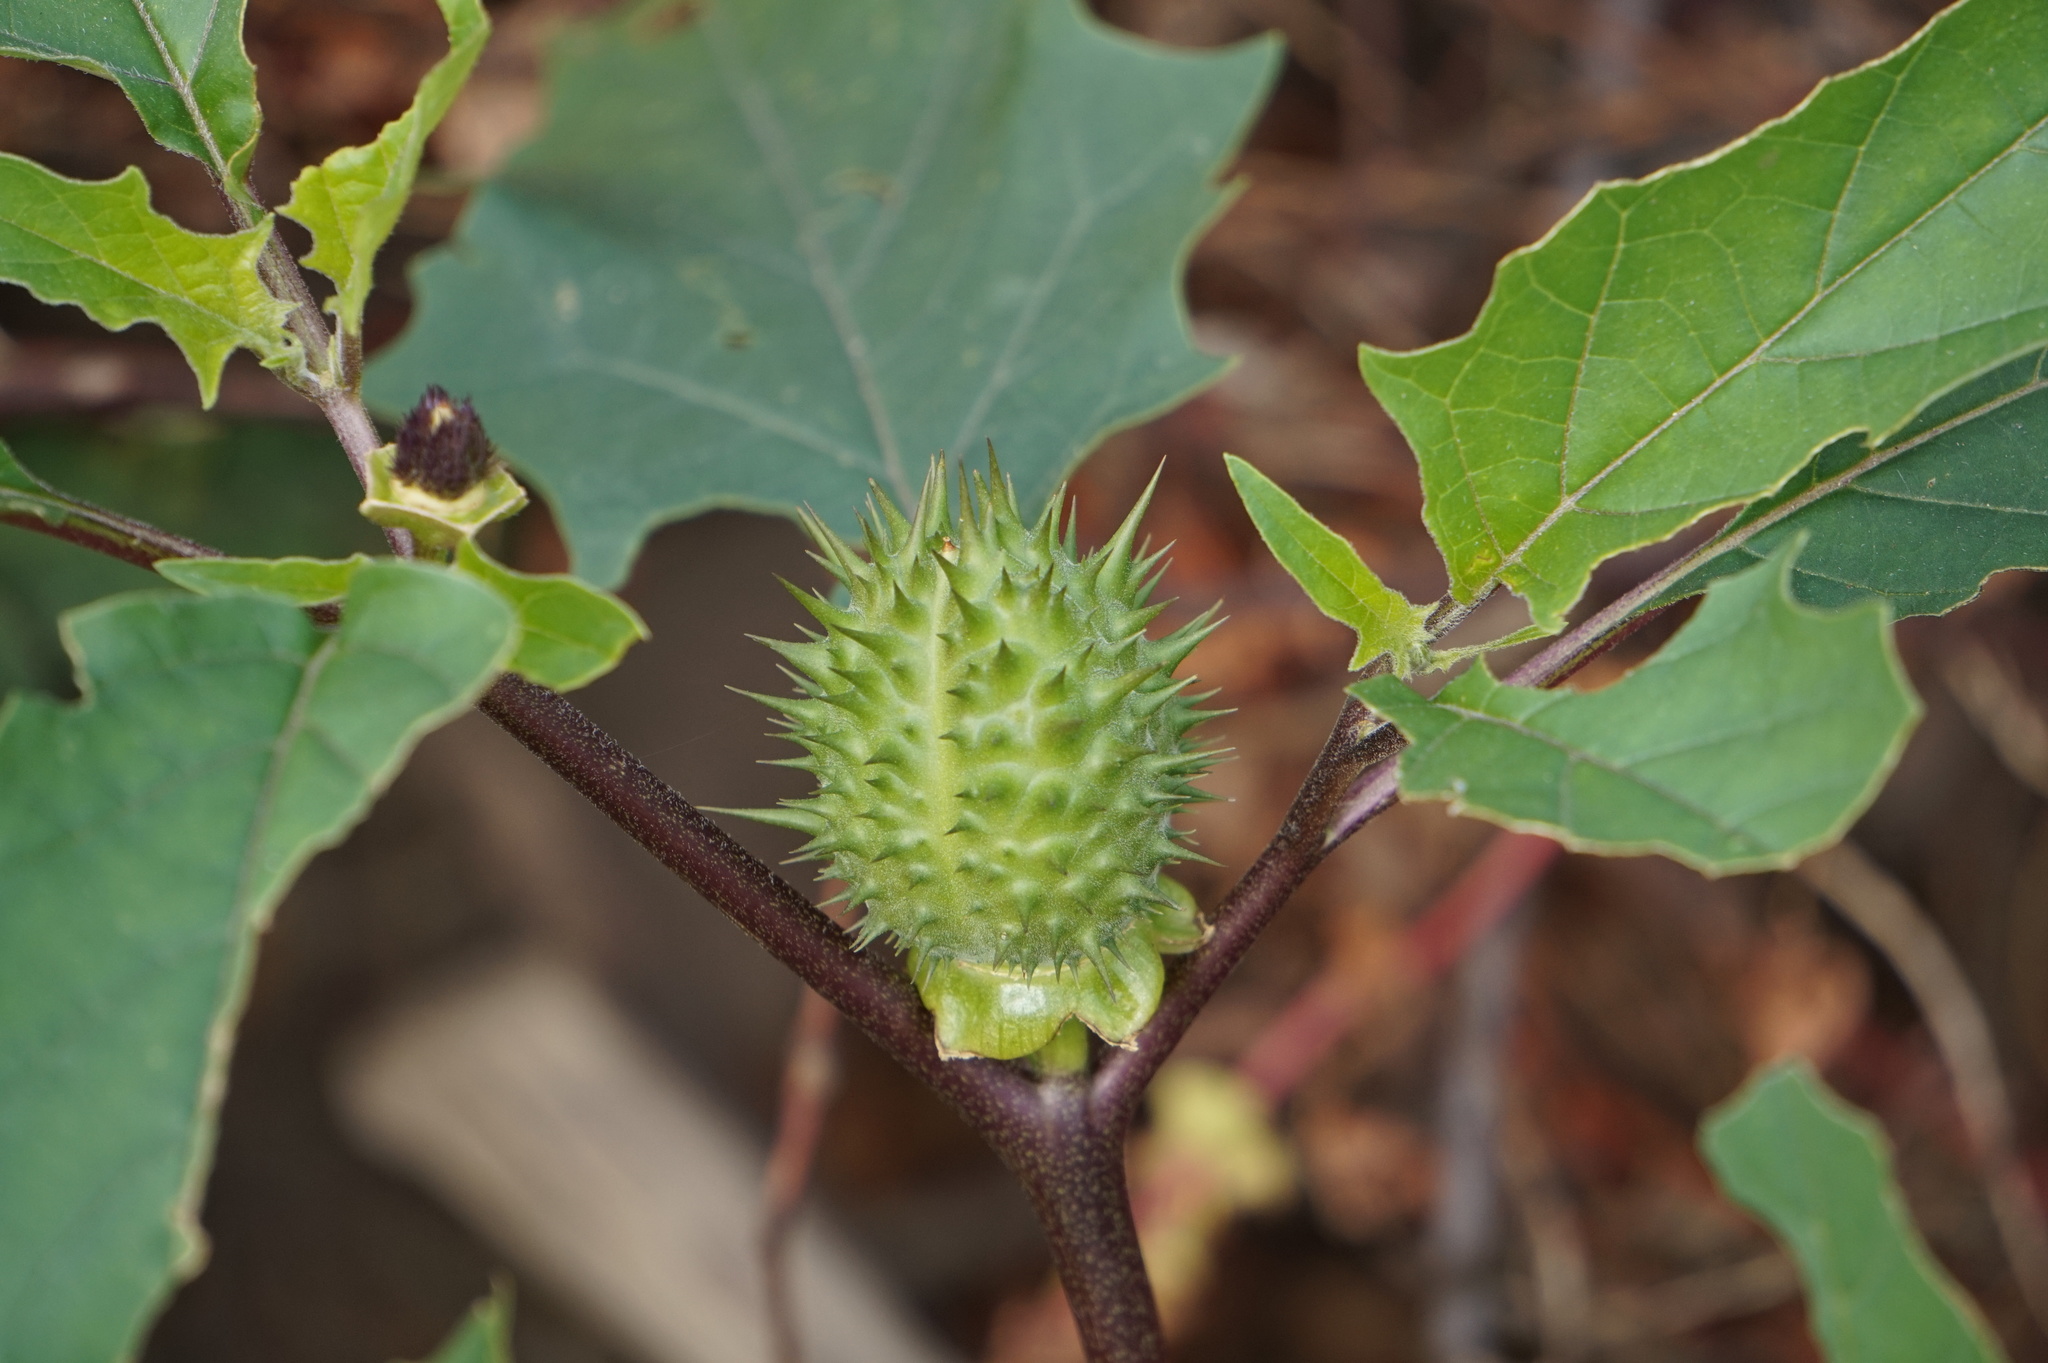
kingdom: Plantae
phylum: Tracheophyta
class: Magnoliopsida
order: Solanales
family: Solanaceae
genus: Datura
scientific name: Datura stramonium
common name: Thorn-apple
